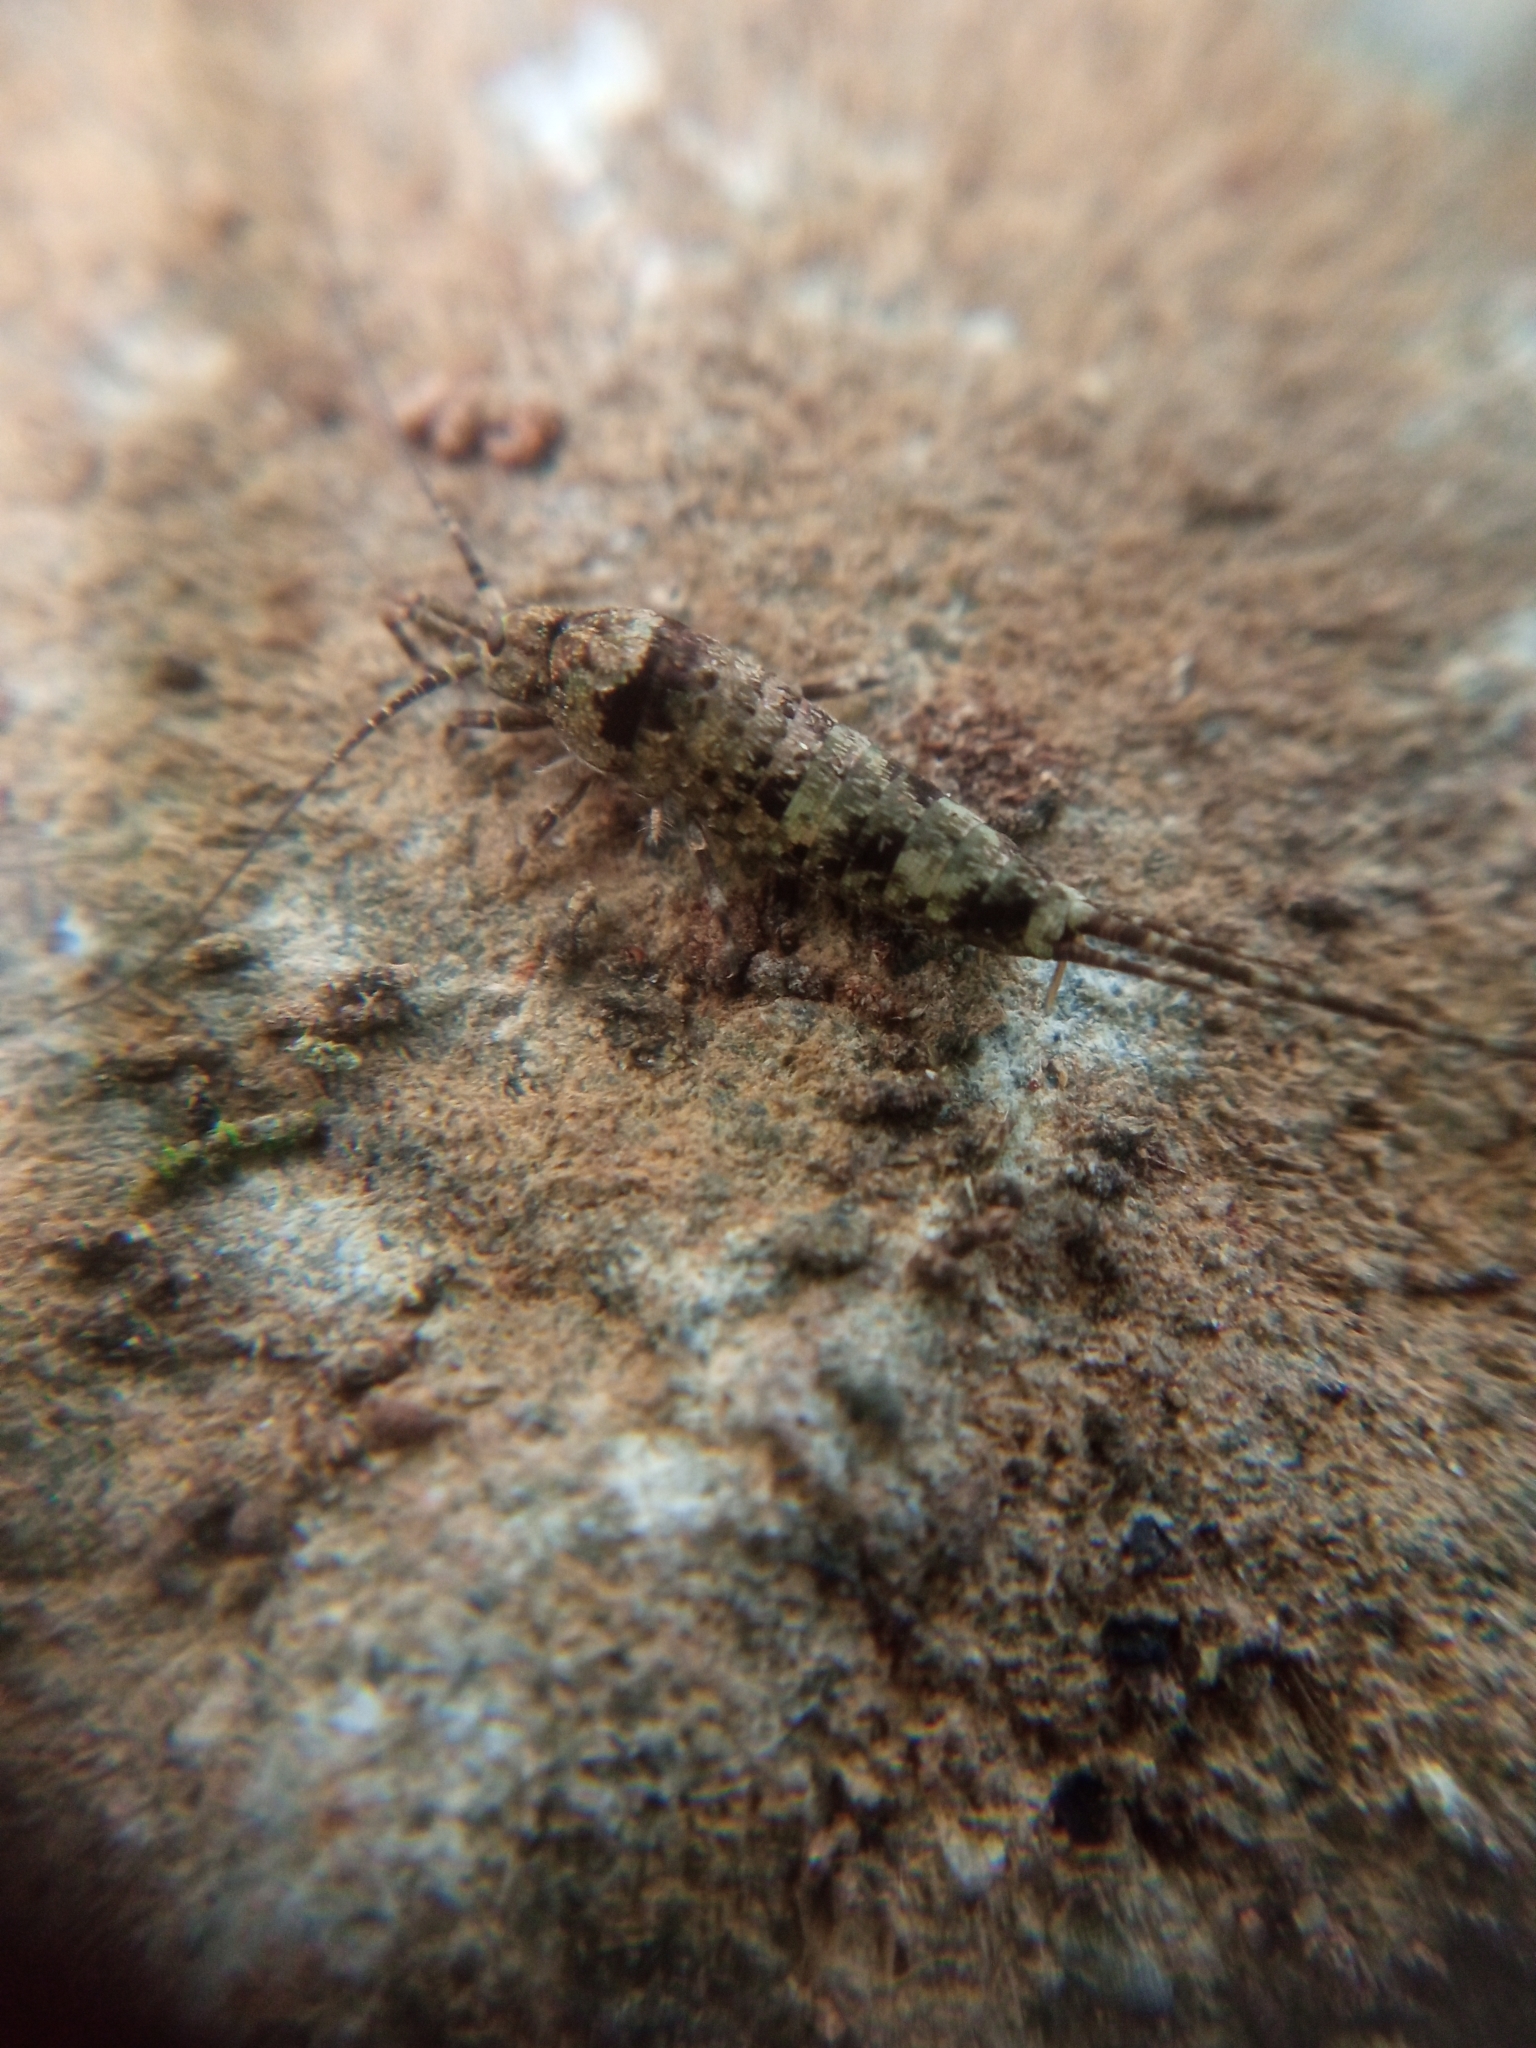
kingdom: Animalia
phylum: Arthropoda
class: Insecta
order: Archaeognatha
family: Machilidae
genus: Trigoniophthalmus
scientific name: Trigoniophthalmus alternatus
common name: Jumping bristletail
